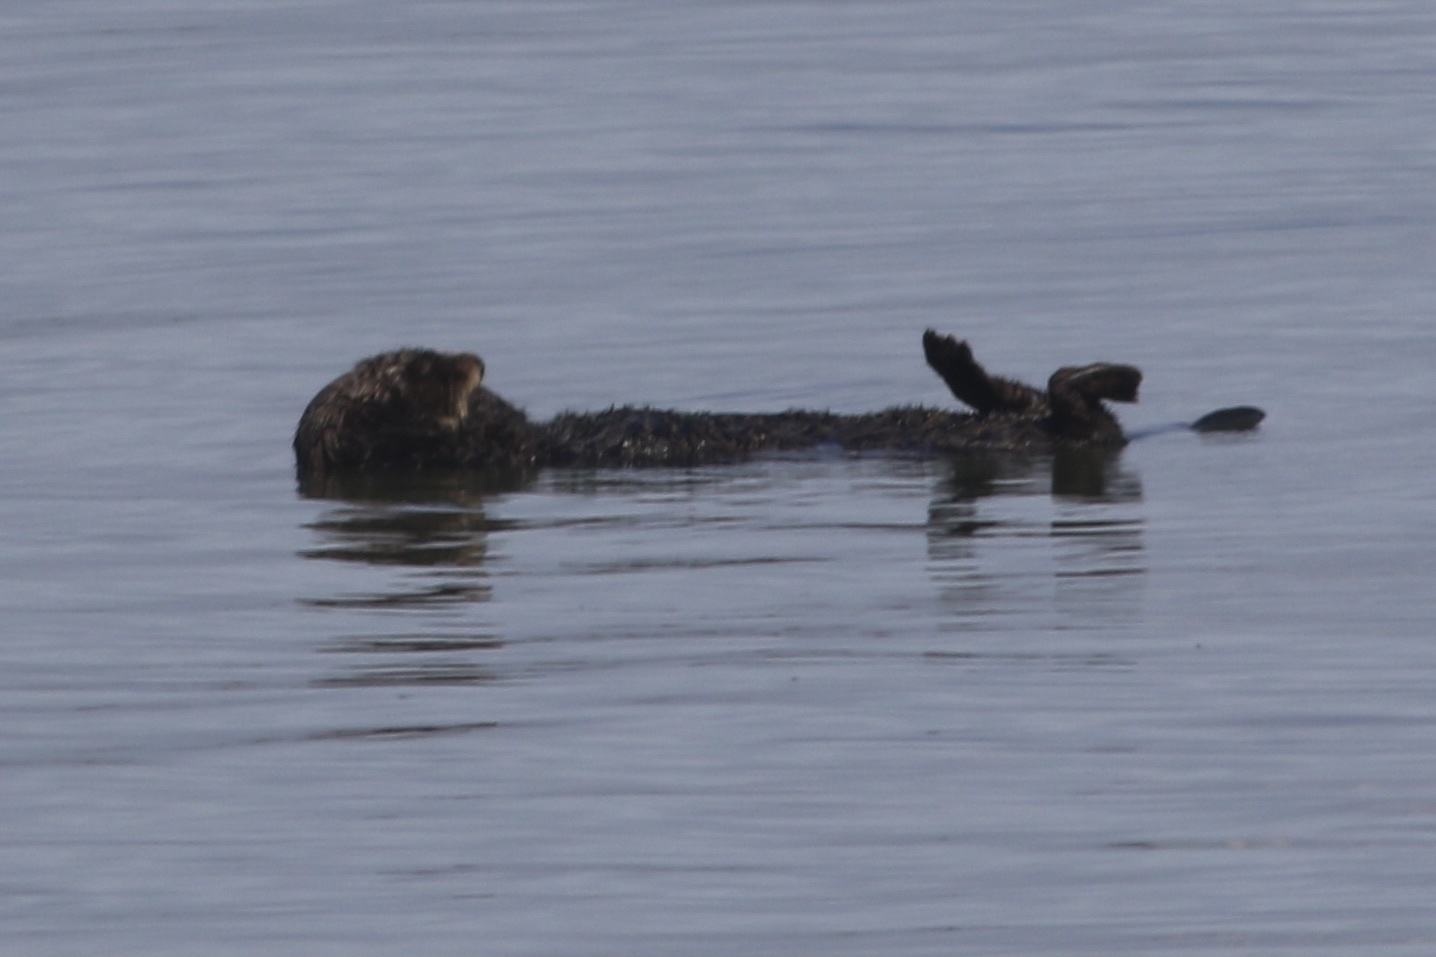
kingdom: Animalia
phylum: Chordata
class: Mammalia
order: Carnivora
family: Mustelidae
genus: Enhydra
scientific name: Enhydra lutris
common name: Sea otter
